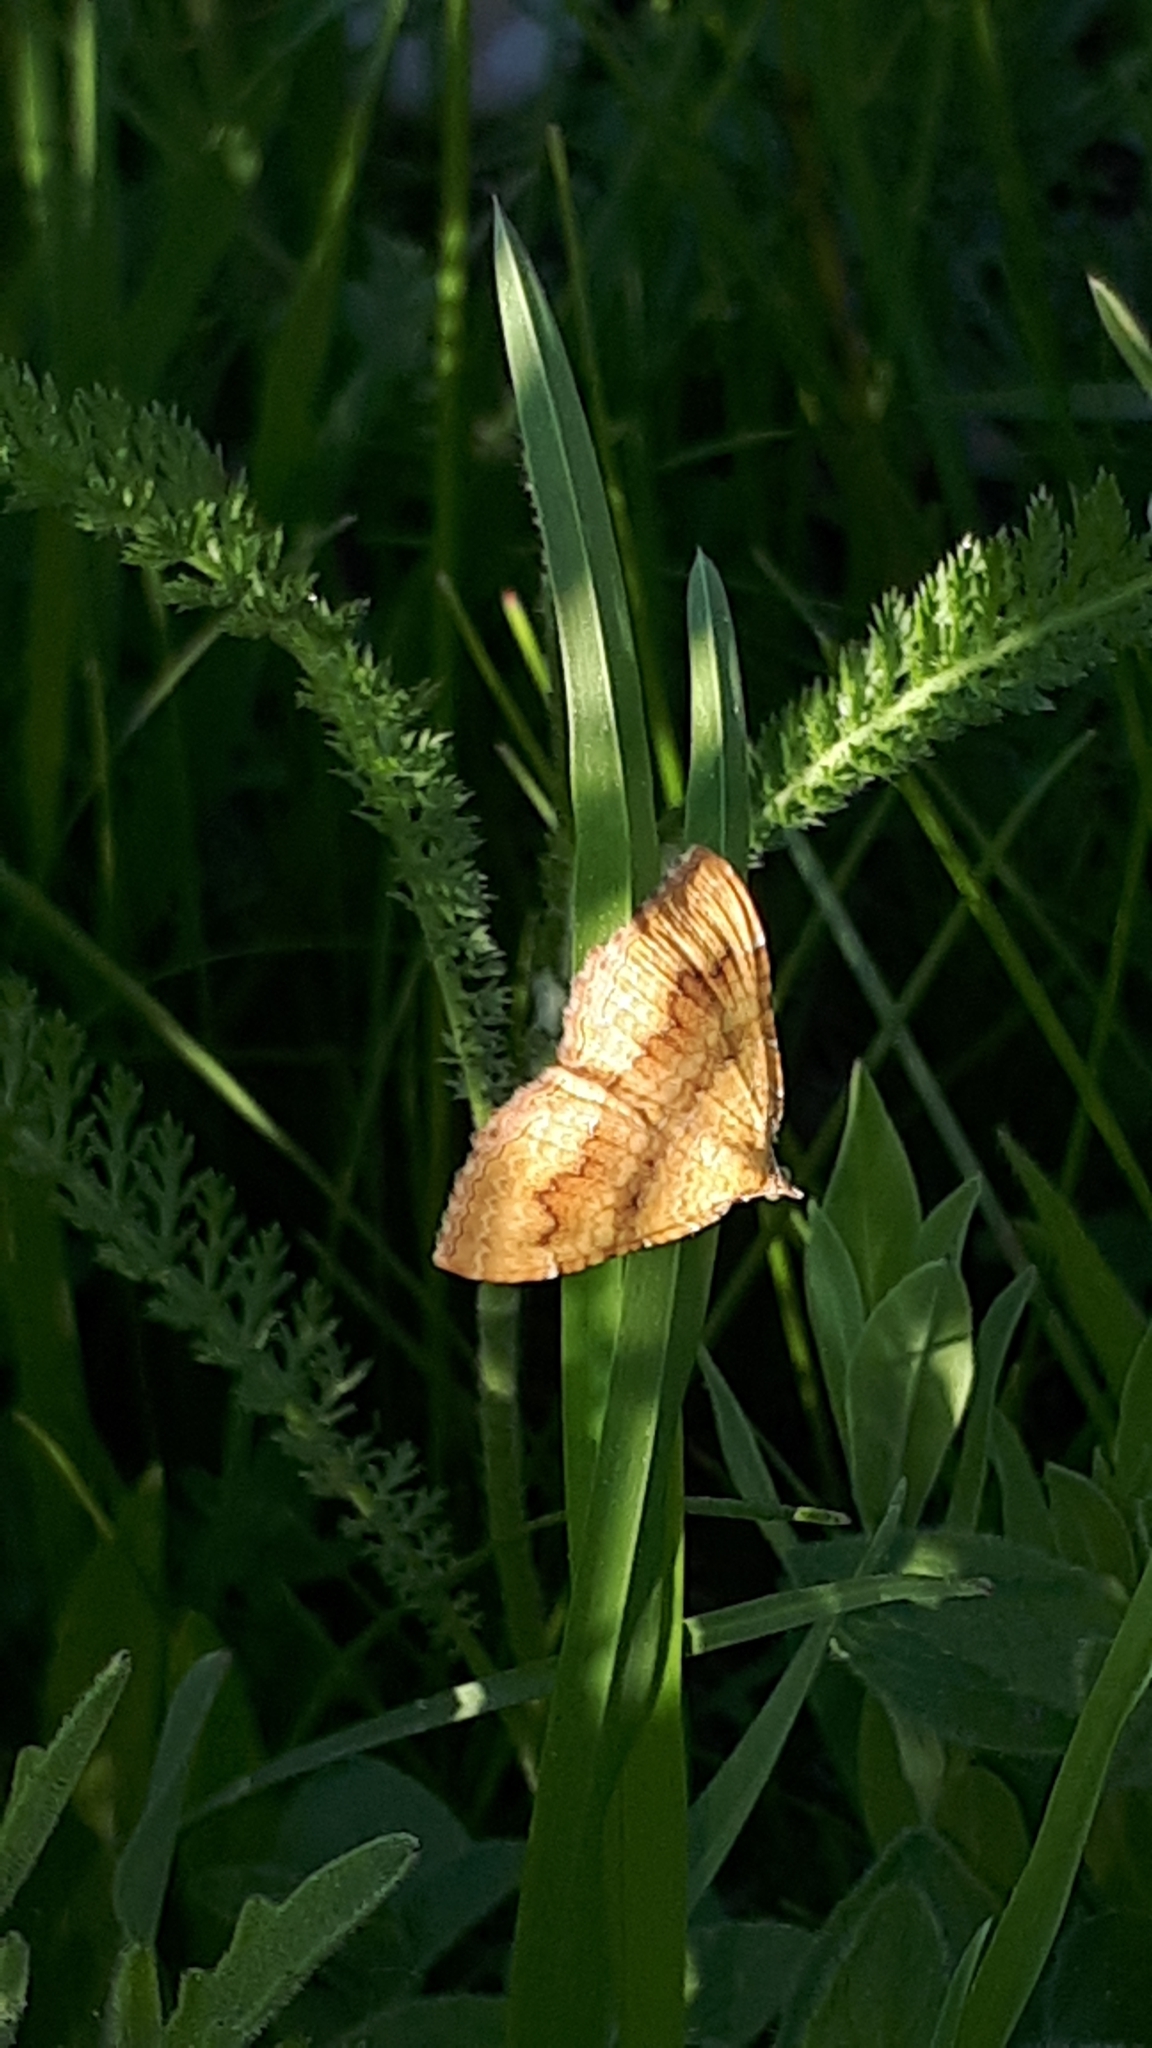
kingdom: Animalia
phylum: Arthropoda
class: Insecta
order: Lepidoptera
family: Geometridae
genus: Camptogramma
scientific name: Camptogramma bilineata
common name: Yellow shell
